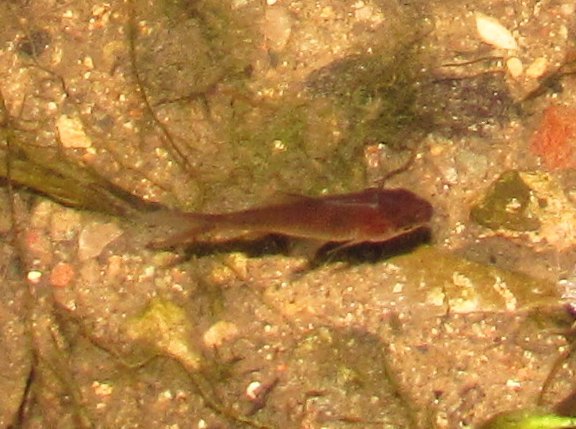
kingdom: Animalia
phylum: Chordata
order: Cypriniformes
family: Cyprinidae
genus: Carassius
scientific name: Carassius auratus
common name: Goldfish
